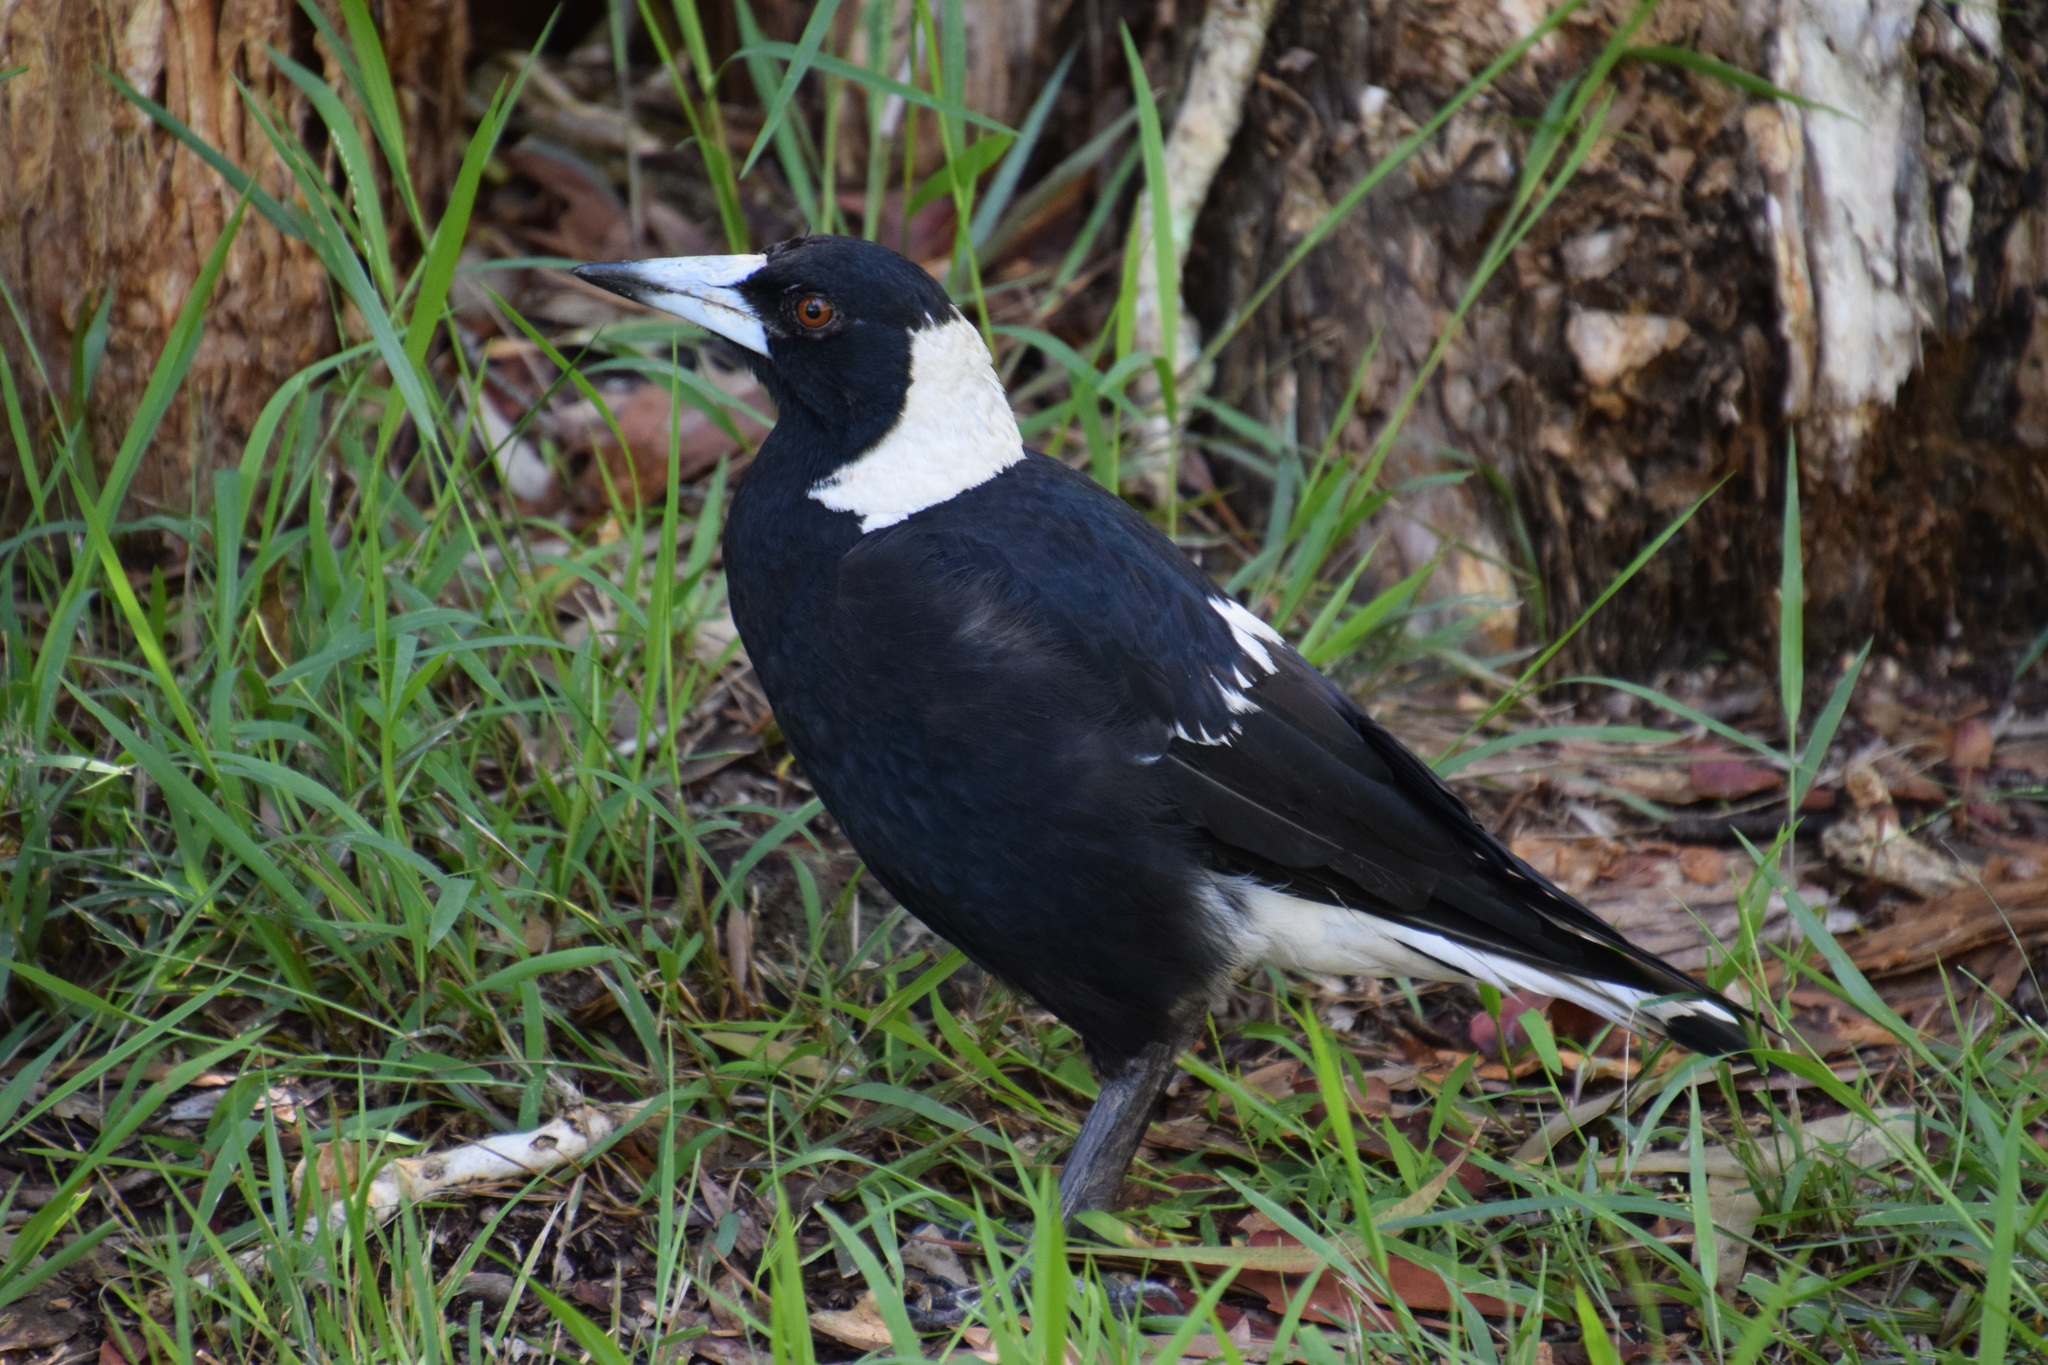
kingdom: Animalia
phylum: Chordata
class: Aves
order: Passeriformes
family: Cracticidae
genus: Gymnorhina
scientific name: Gymnorhina tibicen
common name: Australian magpie
